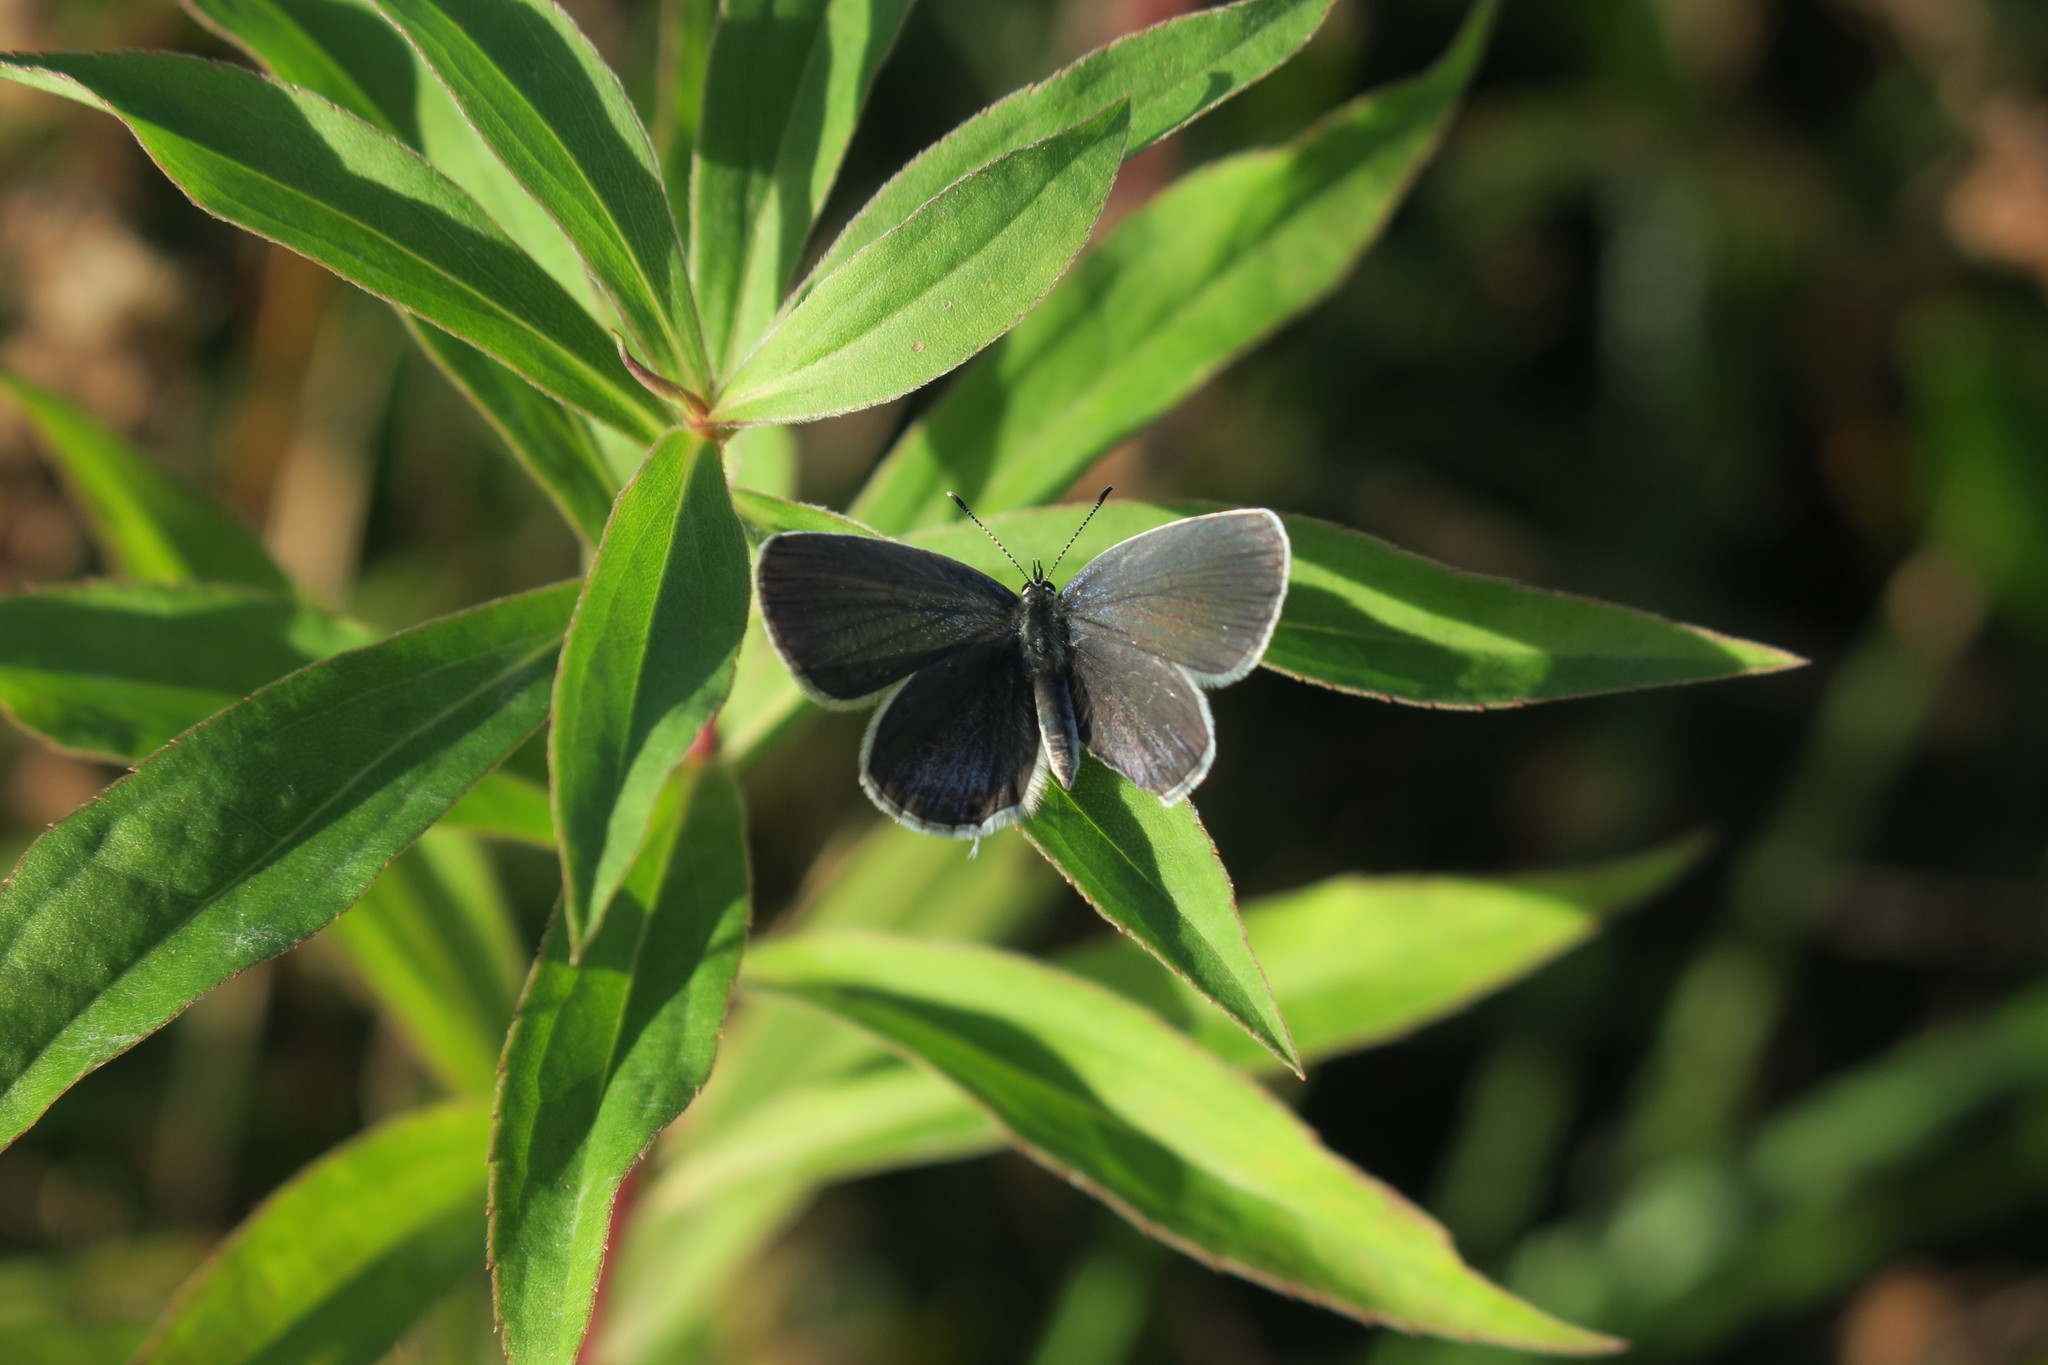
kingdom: Animalia
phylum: Arthropoda
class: Insecta
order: Lepidoptera
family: Lycaenidae
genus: Elkalyce
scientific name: Elkalyce argiades
